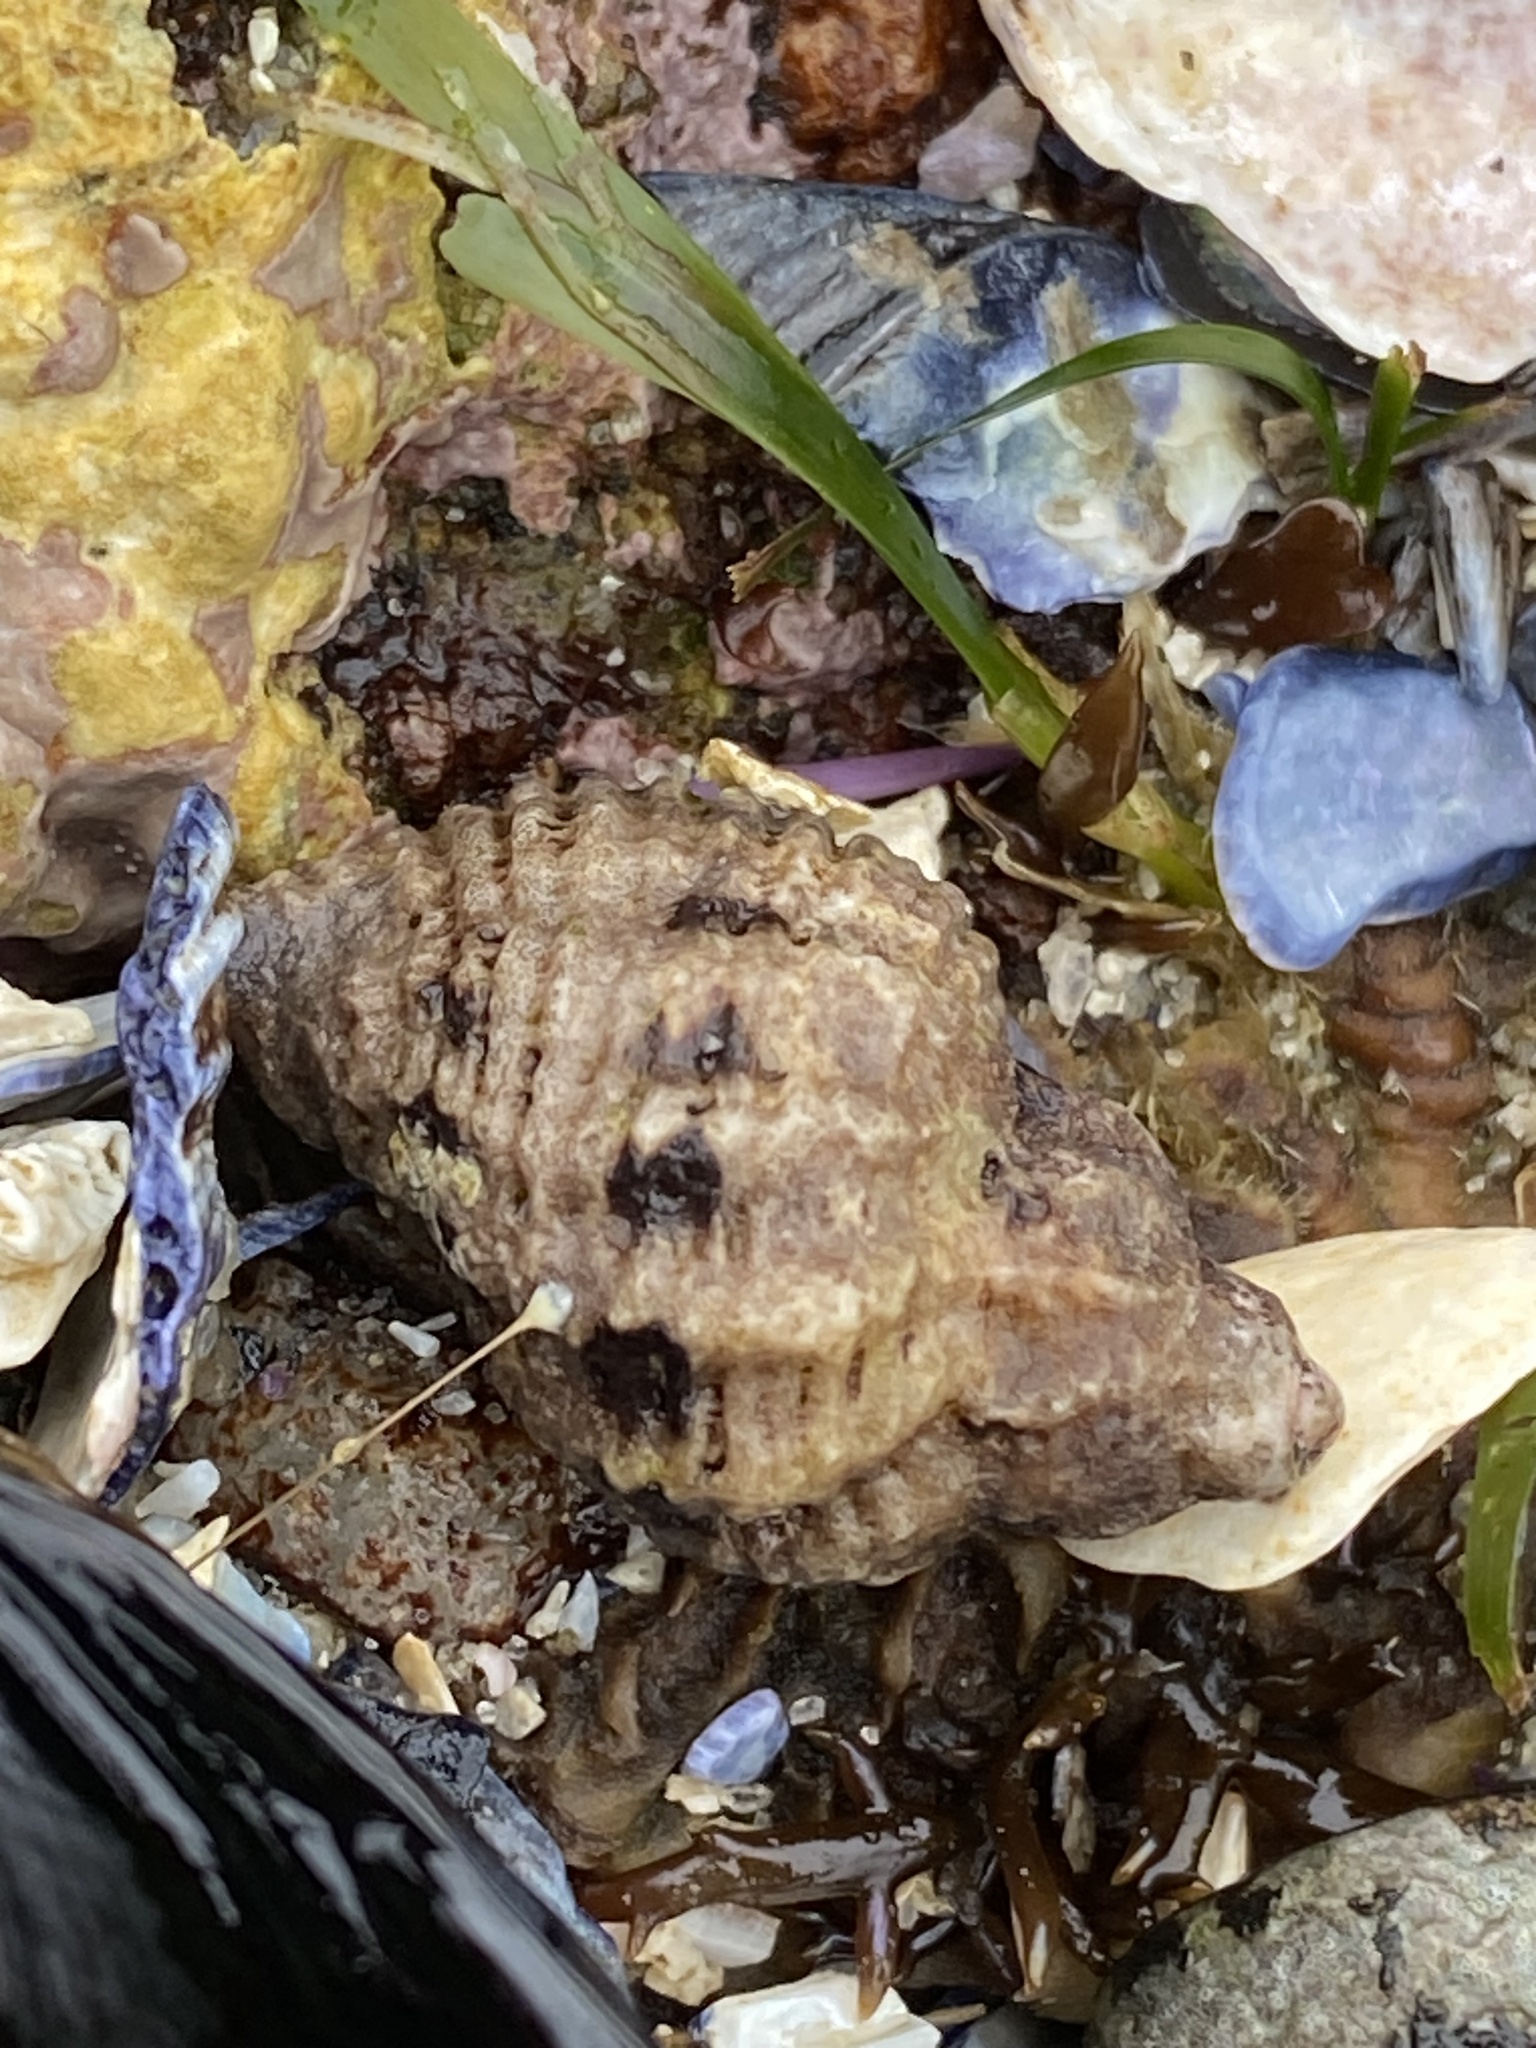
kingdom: Animalia
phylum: Mollusca
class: Gastropoda
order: Neogastropoda
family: Muricidae
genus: Paciocinebrina
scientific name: Paciocinebrina circumtexta
